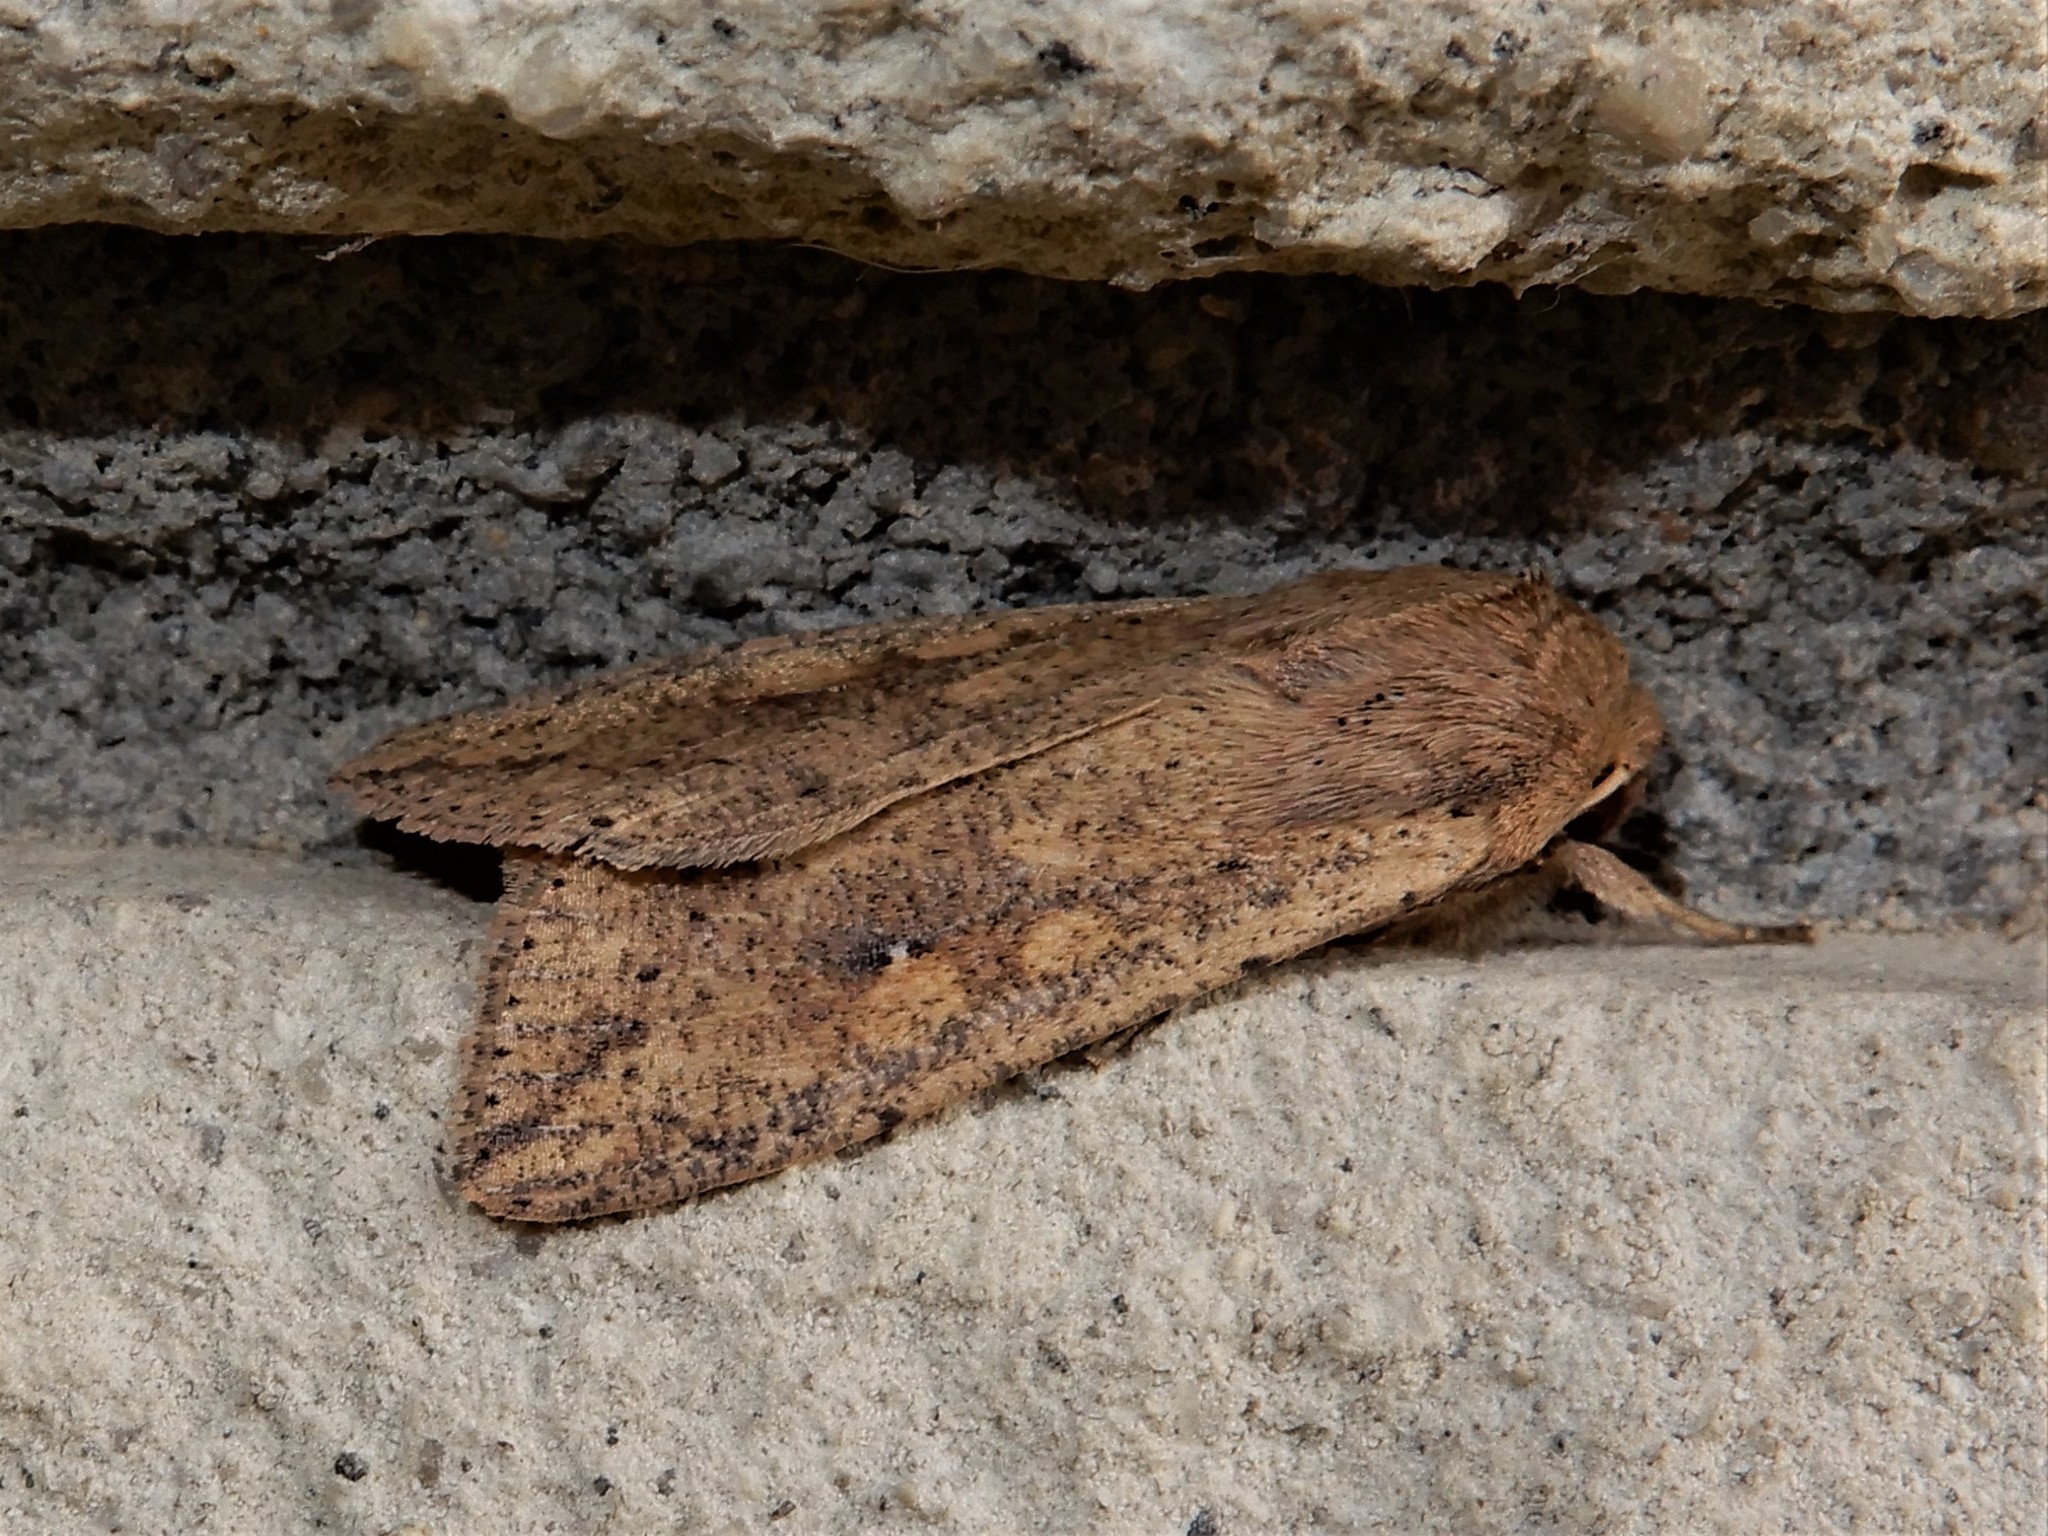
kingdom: Animalia
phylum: Arthropoda
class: Insecta
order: Lepidoptera
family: Noctuidae
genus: Mythimna
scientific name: Mythimna separata
